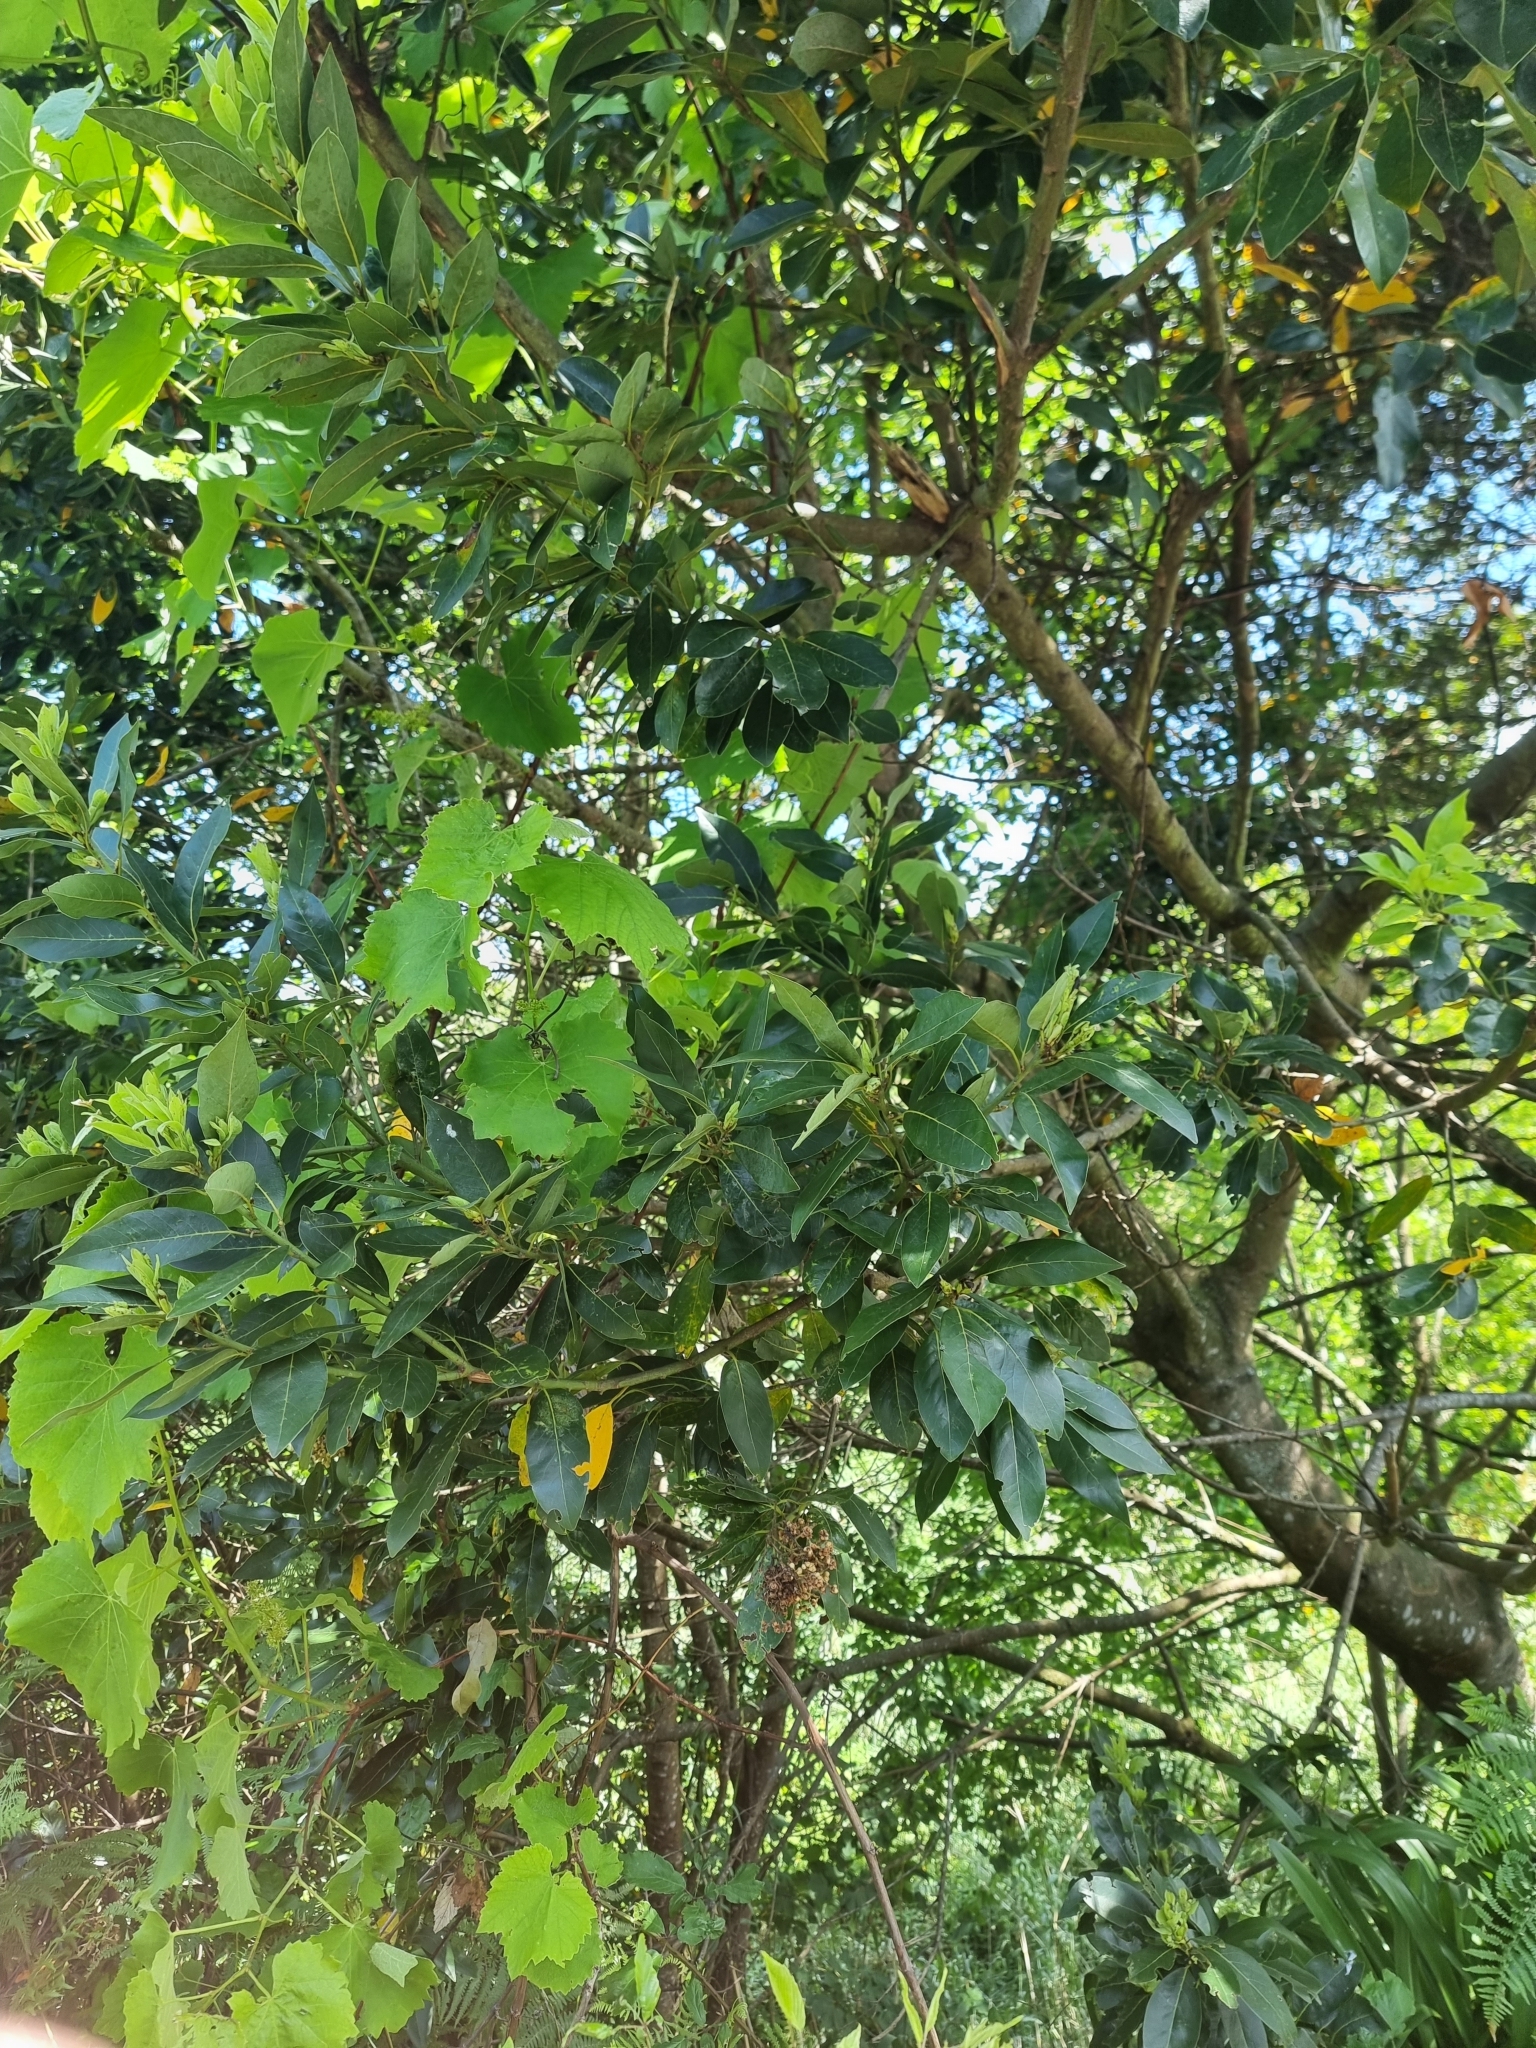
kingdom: Plantae
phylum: Tracheophyta
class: Magnoliopsida
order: Laurales
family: Lauraceae
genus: Laurus
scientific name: Laurus novocanariensis
